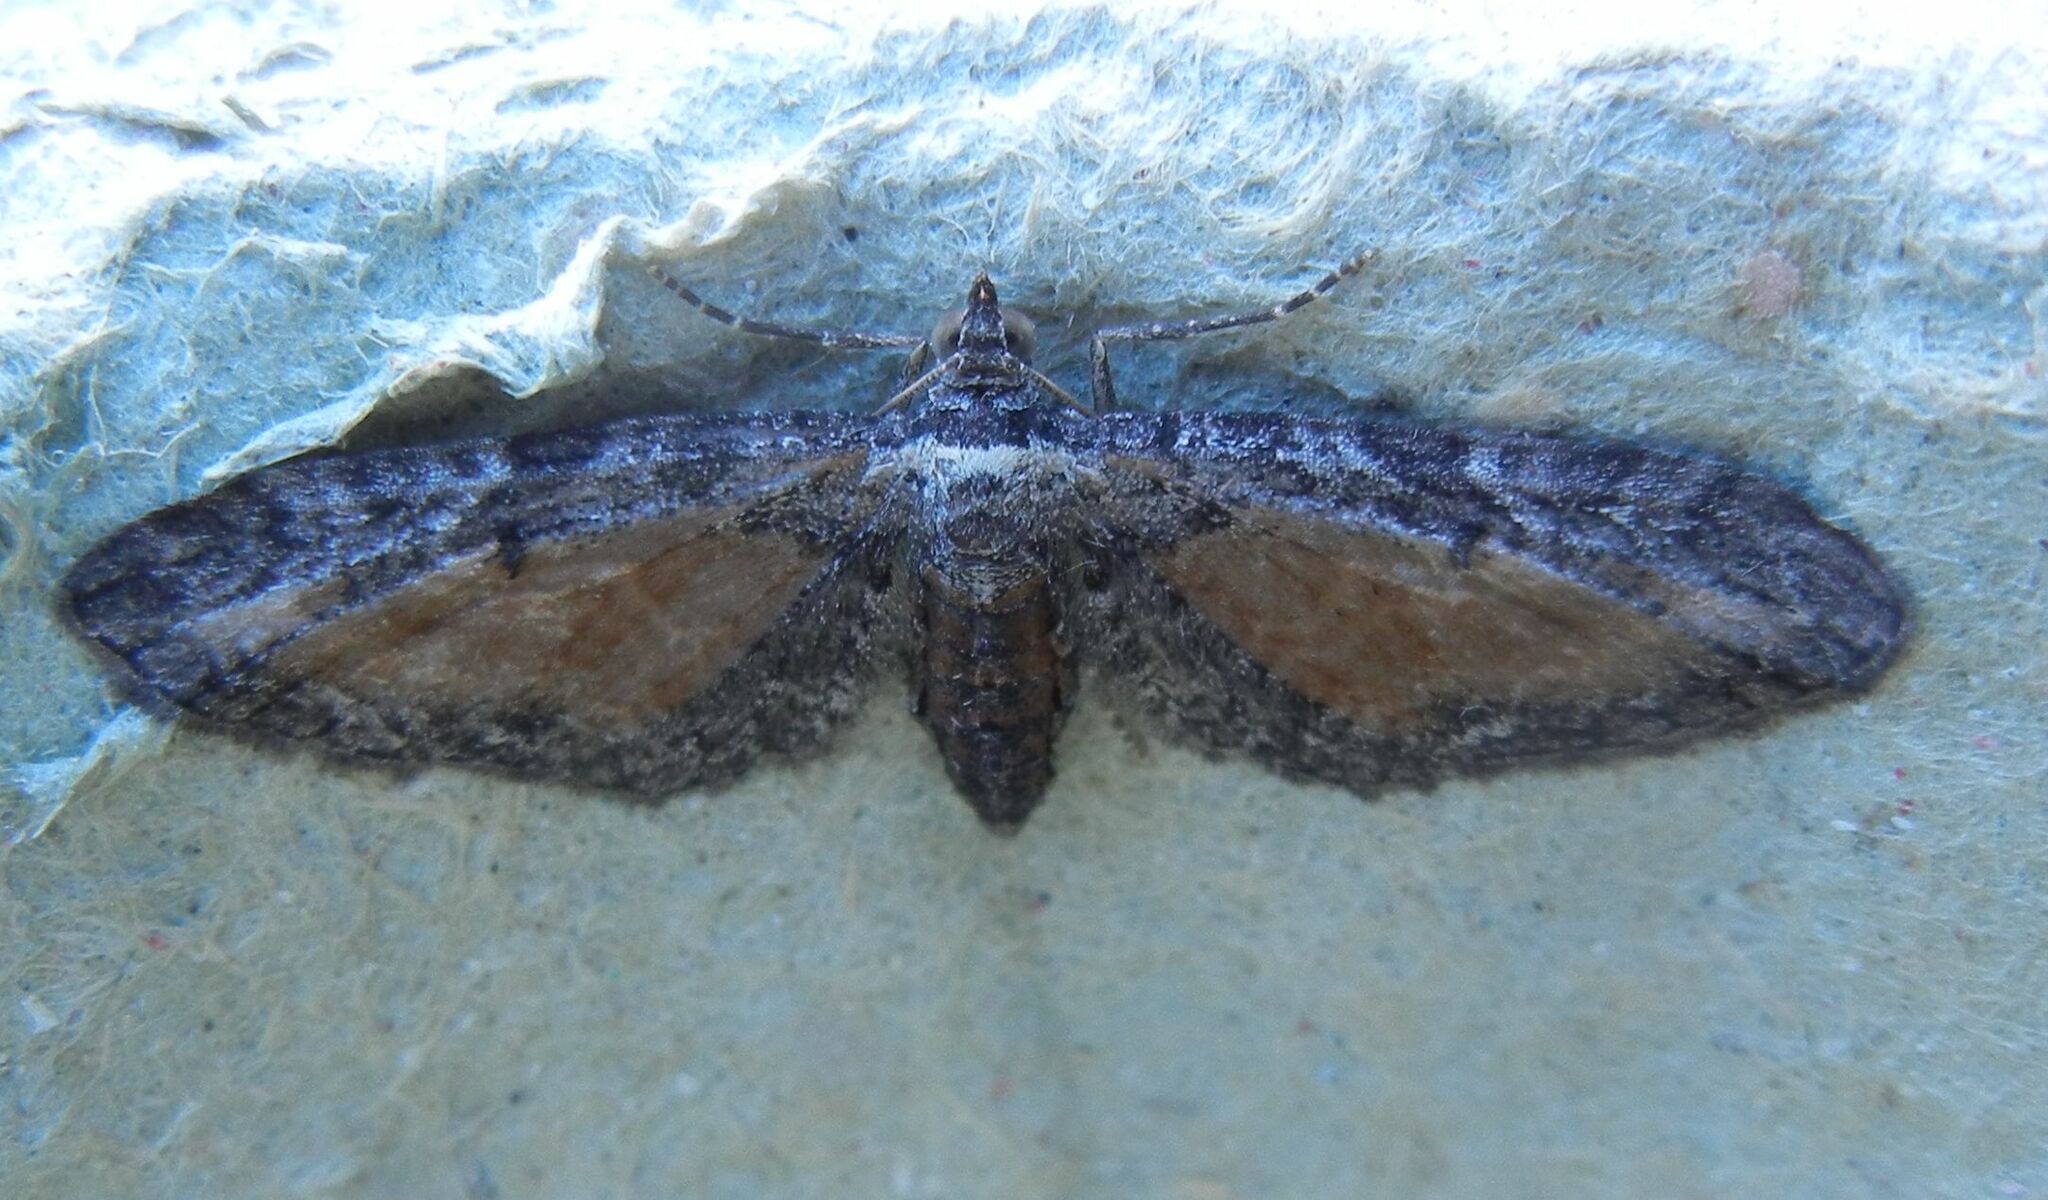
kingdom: Animalia
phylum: Arthropoda
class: Insecta
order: Lepidoptera
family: Geometridae
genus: Eupithecia
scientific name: Eupithecia icterata
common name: Tawny speckled pug
